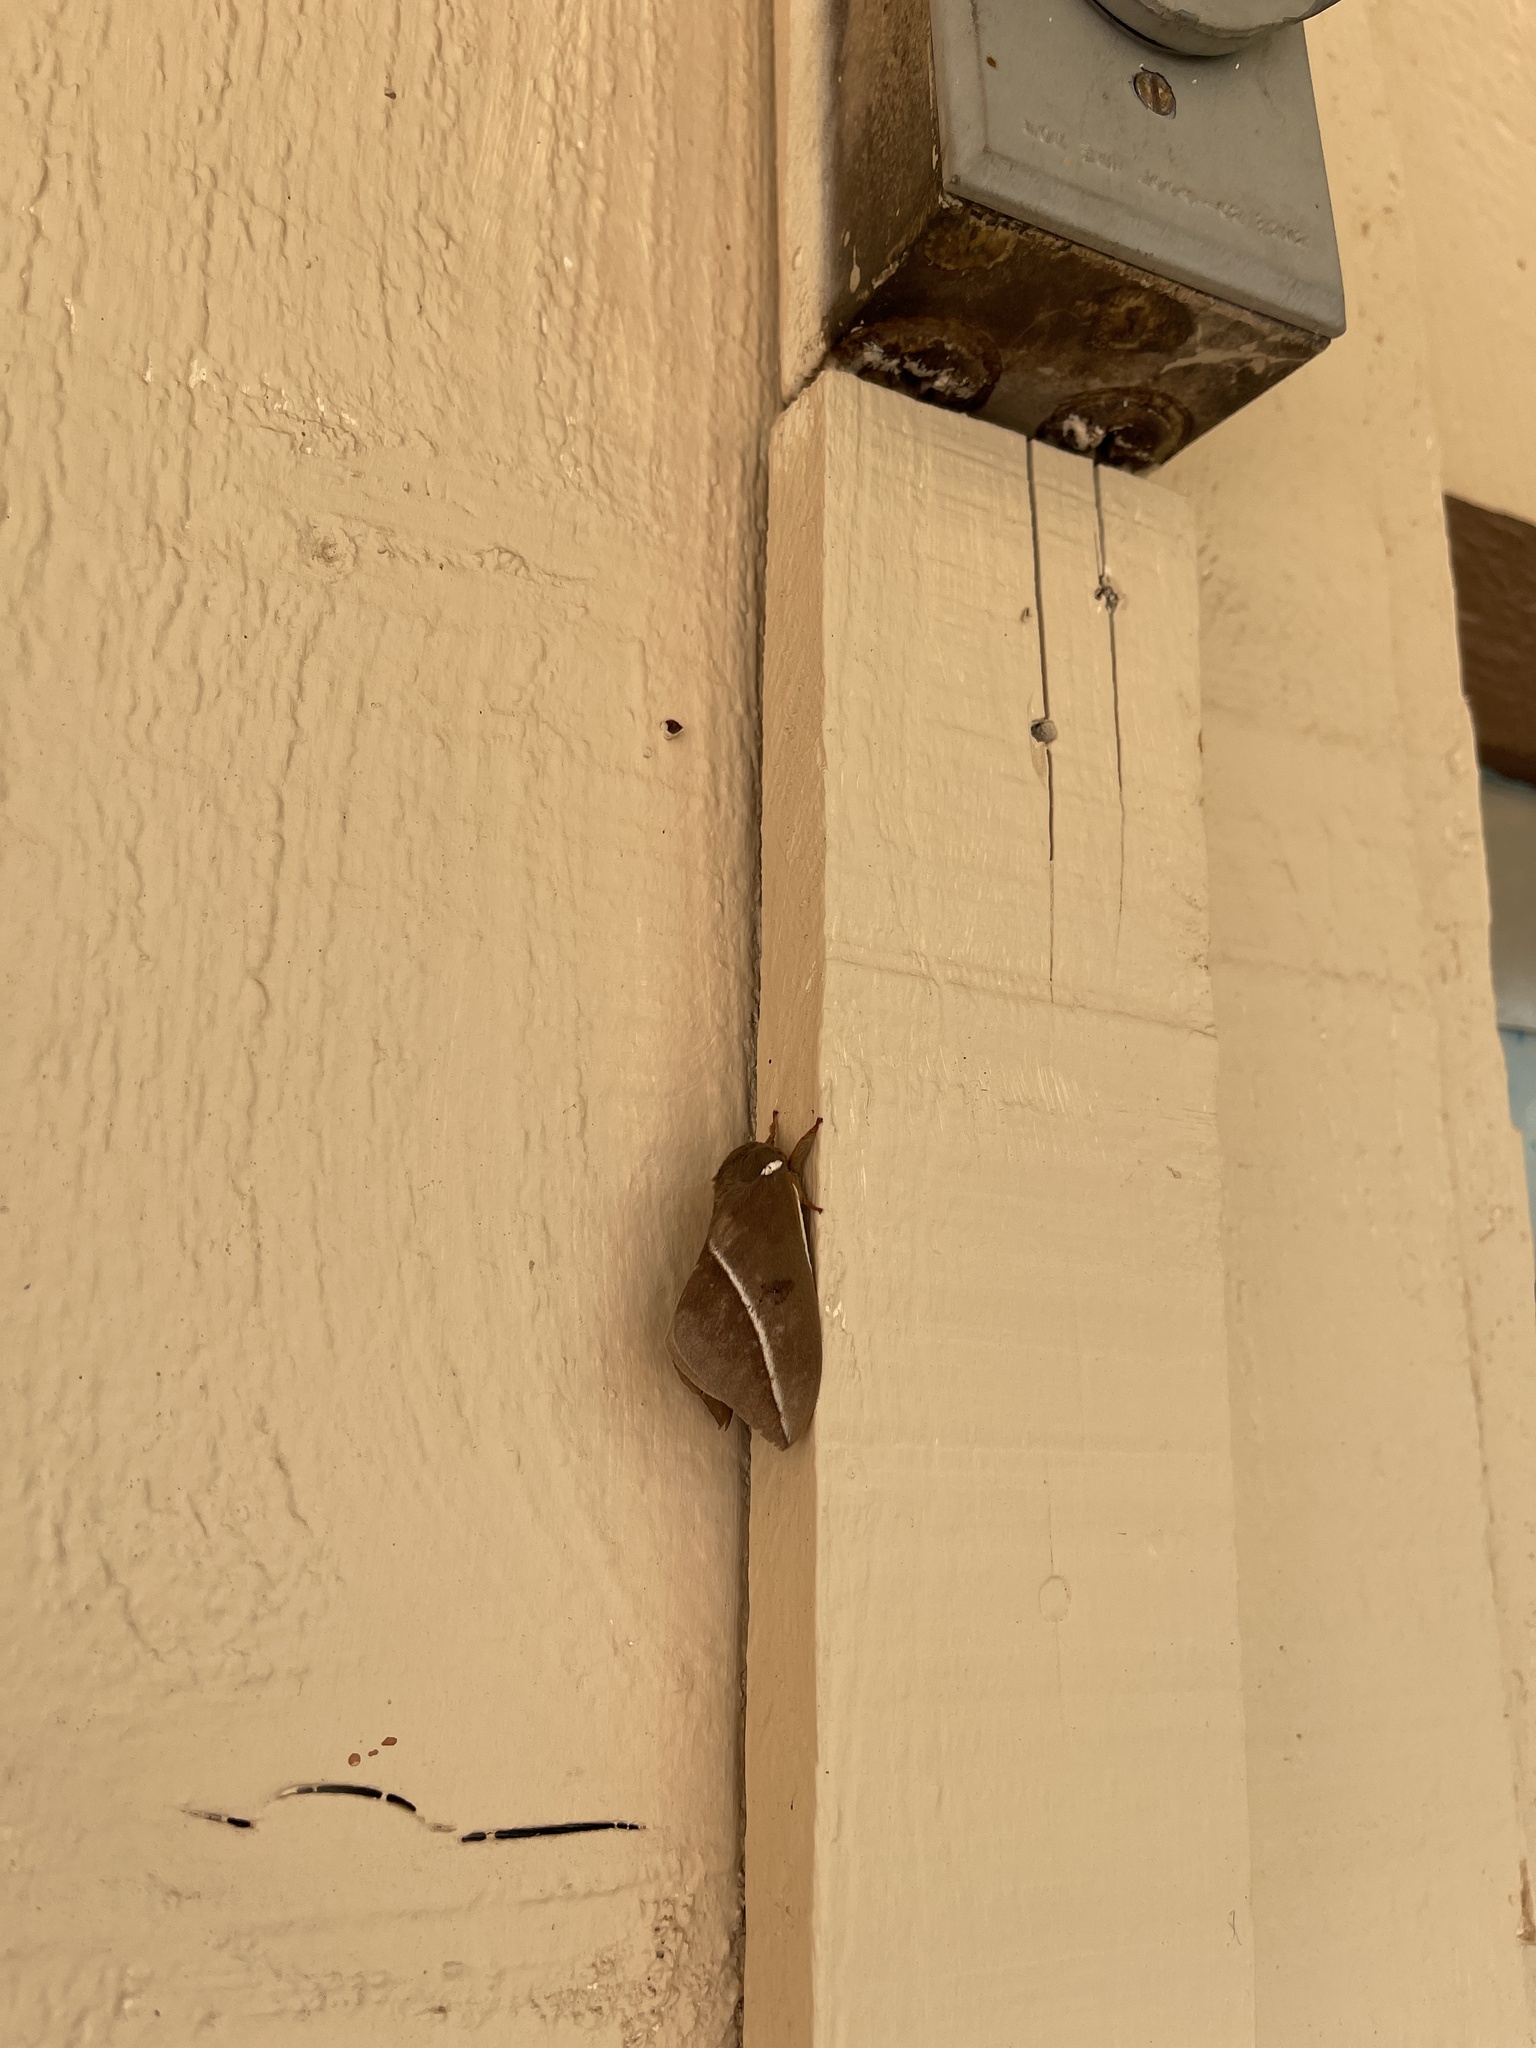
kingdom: Animalia
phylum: Arthropoda
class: Insecta
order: Lepidoptera
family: Saturniidae
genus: Automeris
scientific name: Automeris zephyria
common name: Zephyr eyed silkmoth
